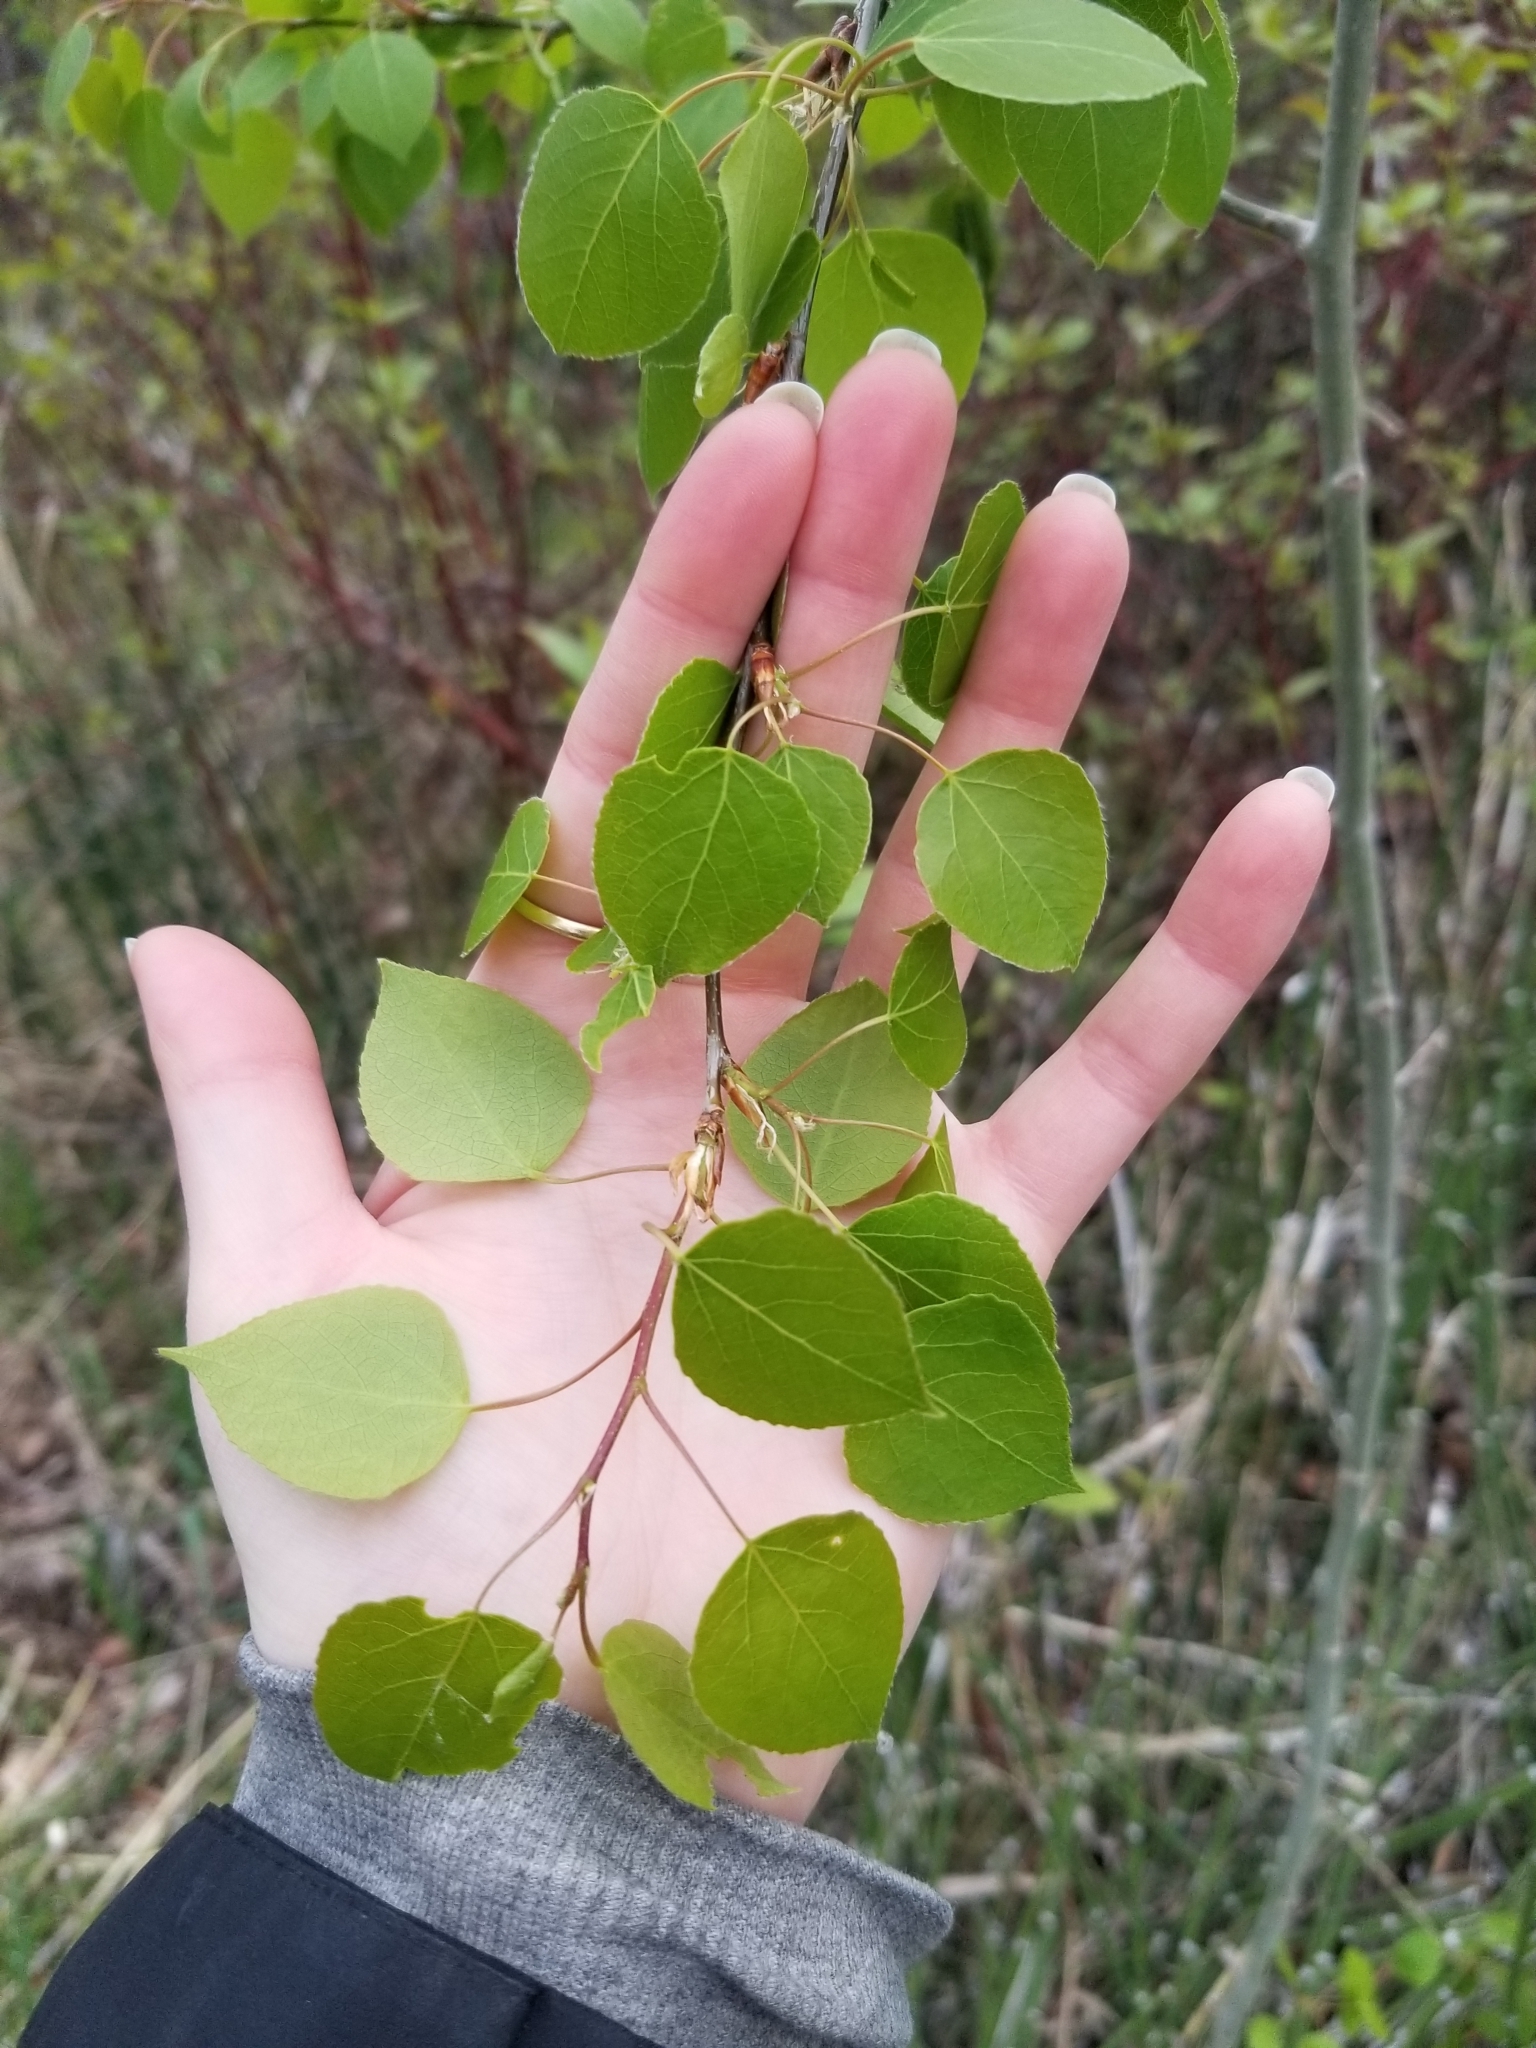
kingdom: Plantae
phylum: Tracheophyta
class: Magnoliopsida
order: Malpighiales
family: Salicaceae
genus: Populus
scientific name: Populus tremuloides
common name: Quaking aspen
